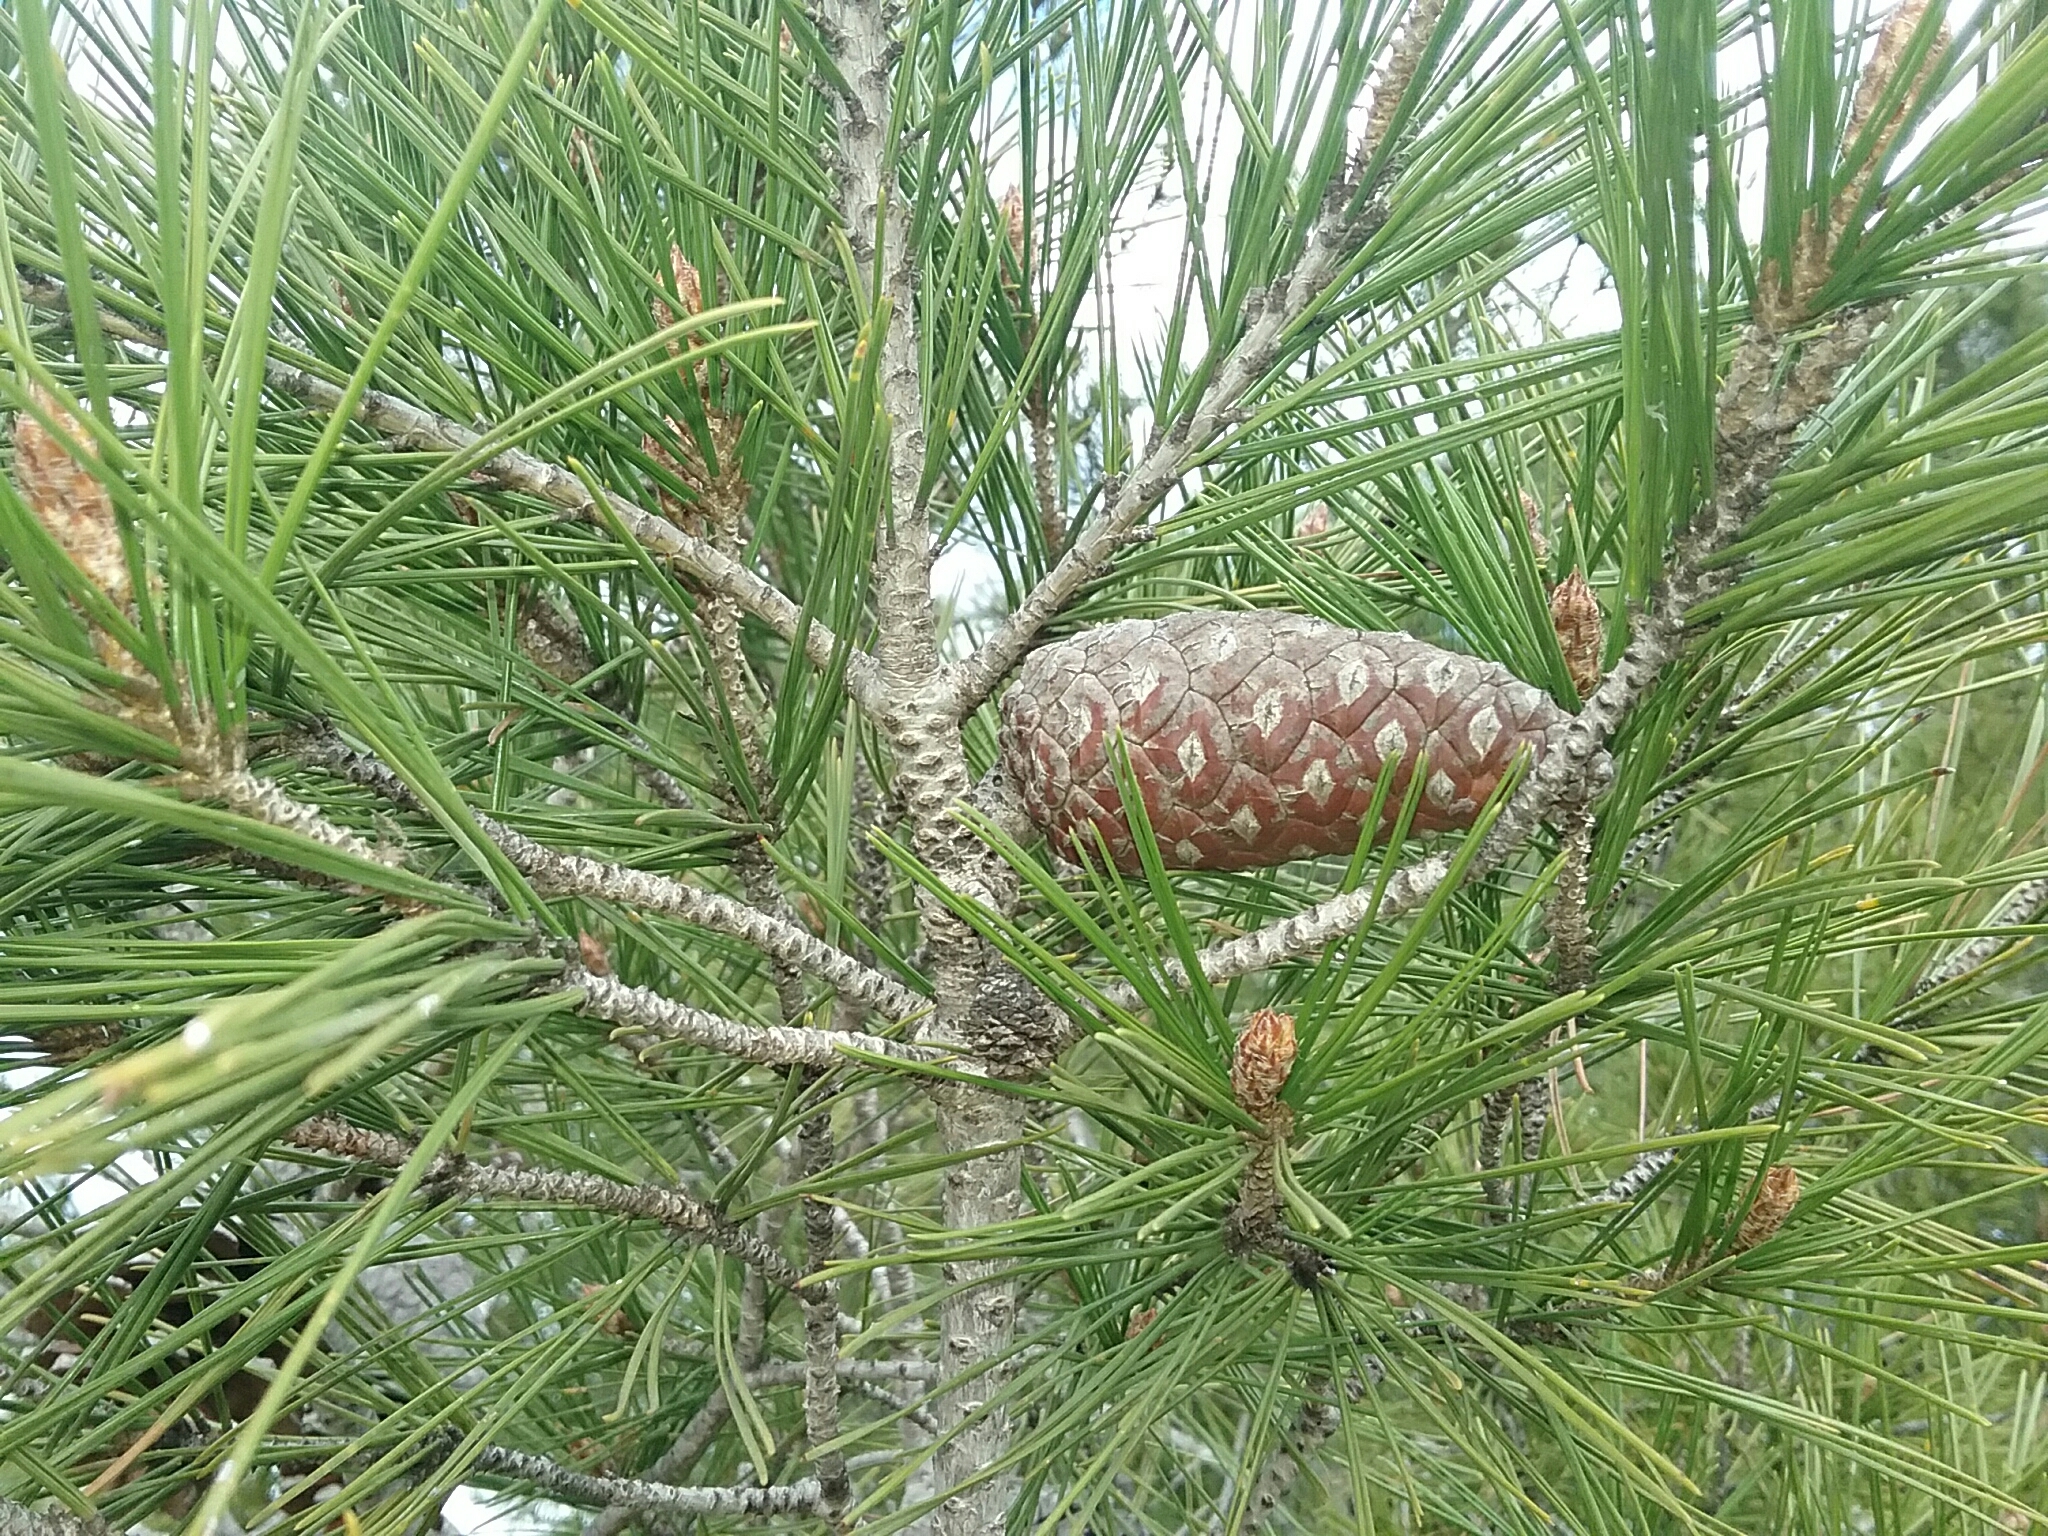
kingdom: Plantae
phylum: Tracheophyta
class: Pinopsida
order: Pinales
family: Pinaceae
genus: Pinus
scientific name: Pinus halepensis
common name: Aleppo pine
